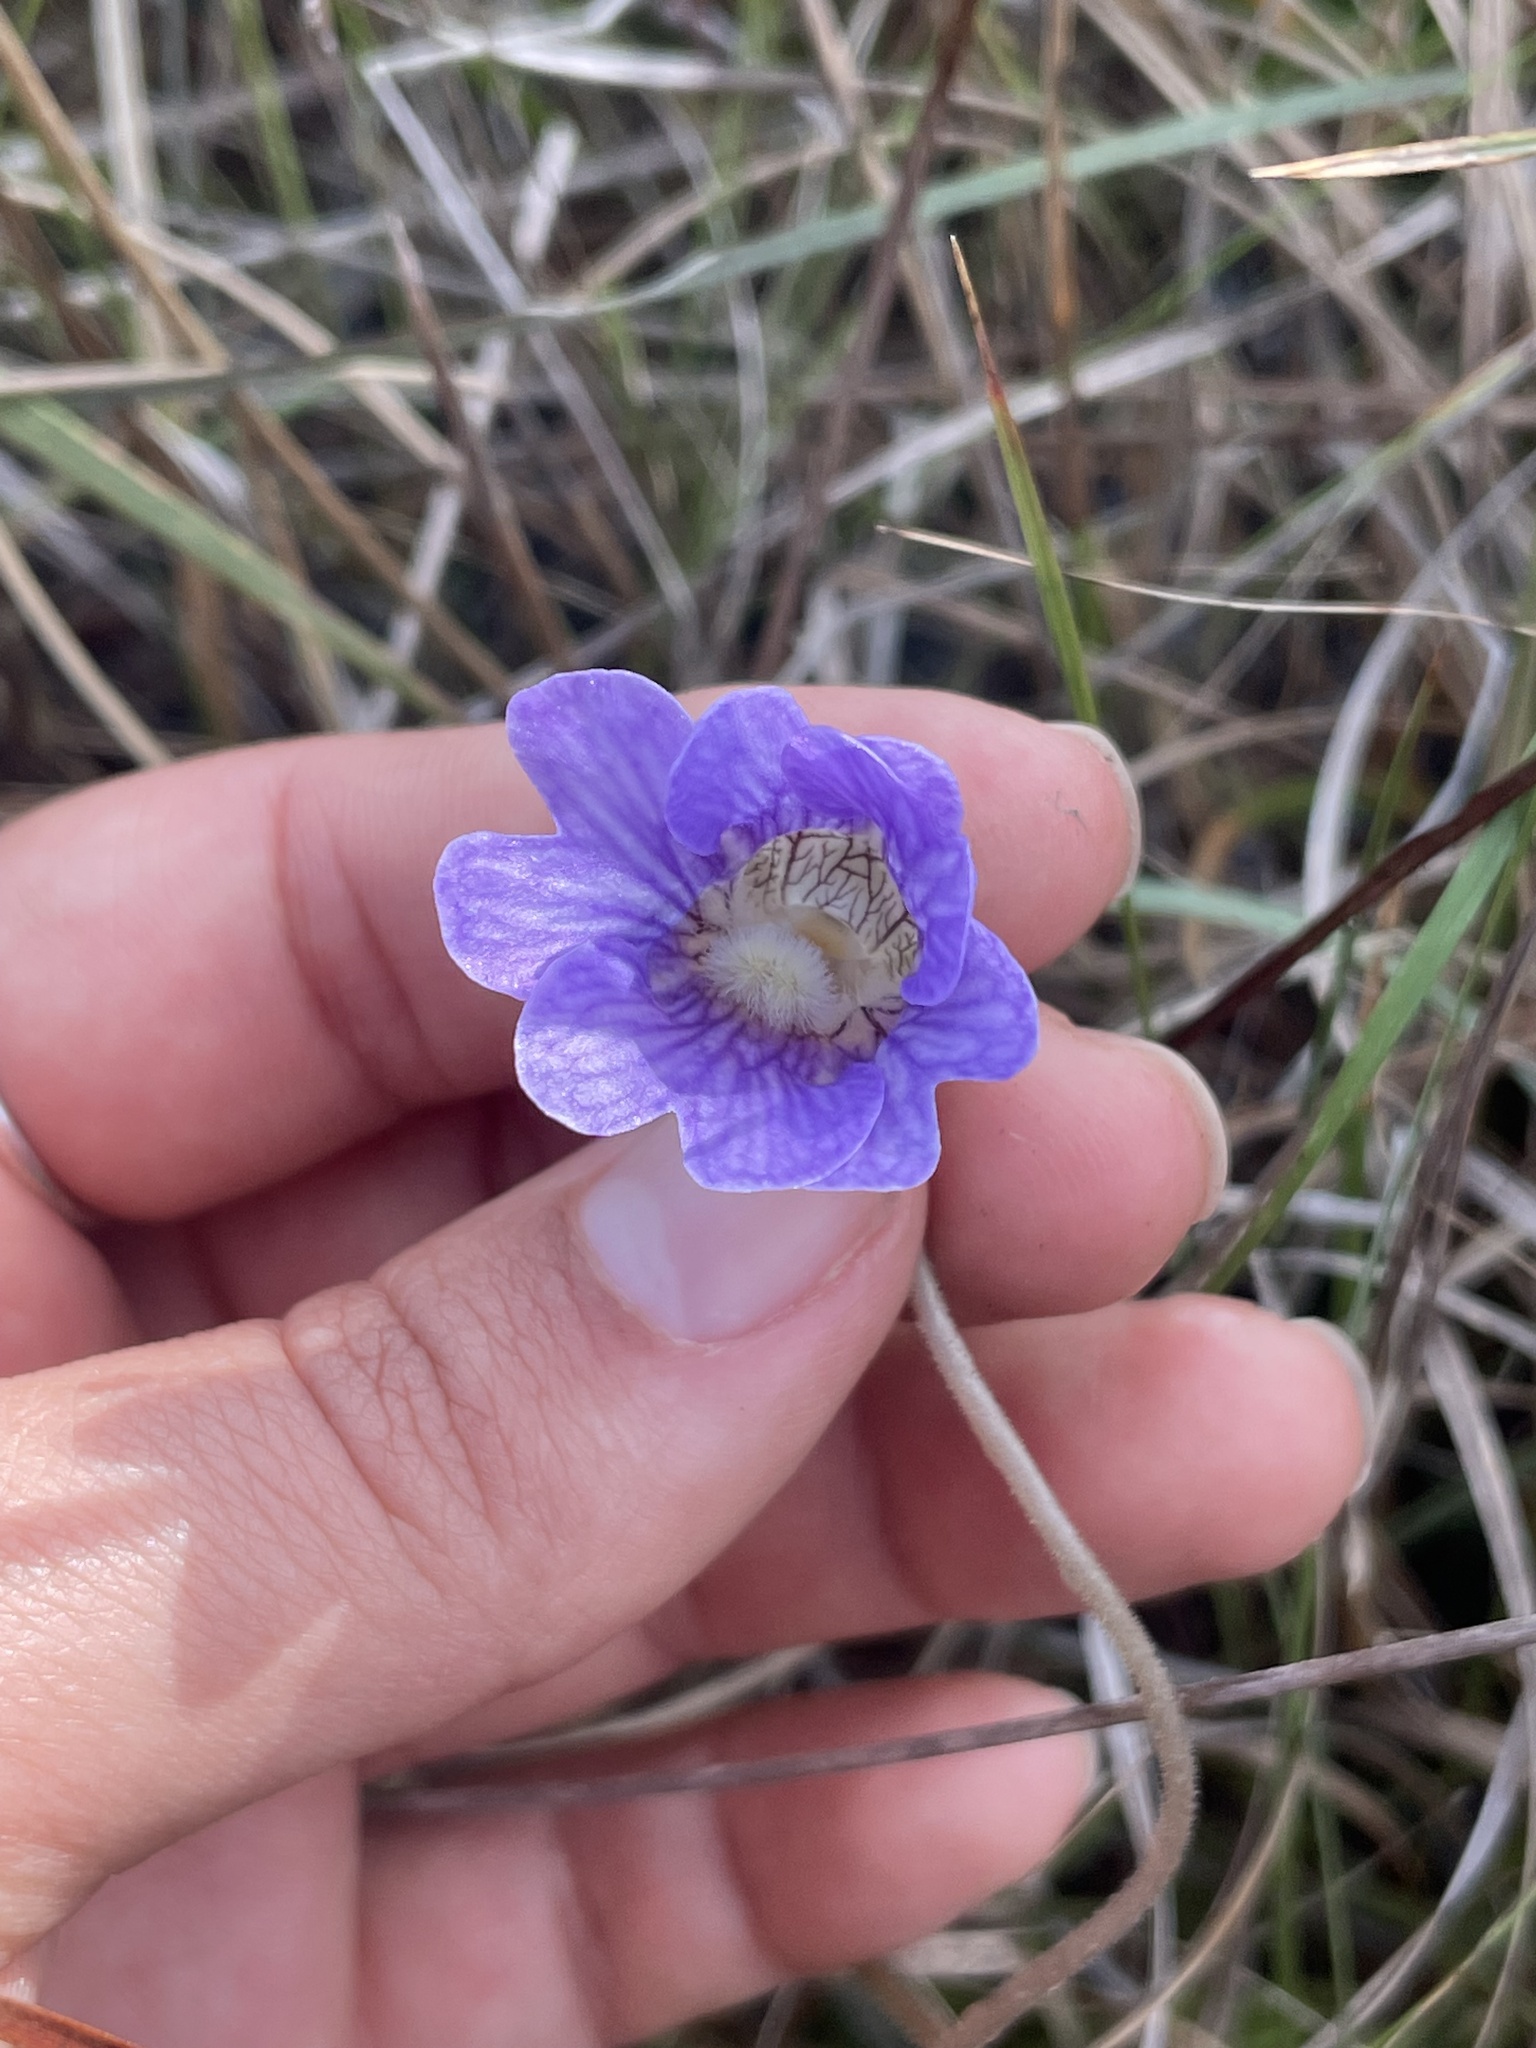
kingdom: Plantae
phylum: Tracheophyta
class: Magnoliopsida
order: Lamiales
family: Lentibulariaceae
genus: Pinguicula
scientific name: Pinguicula caerulea
